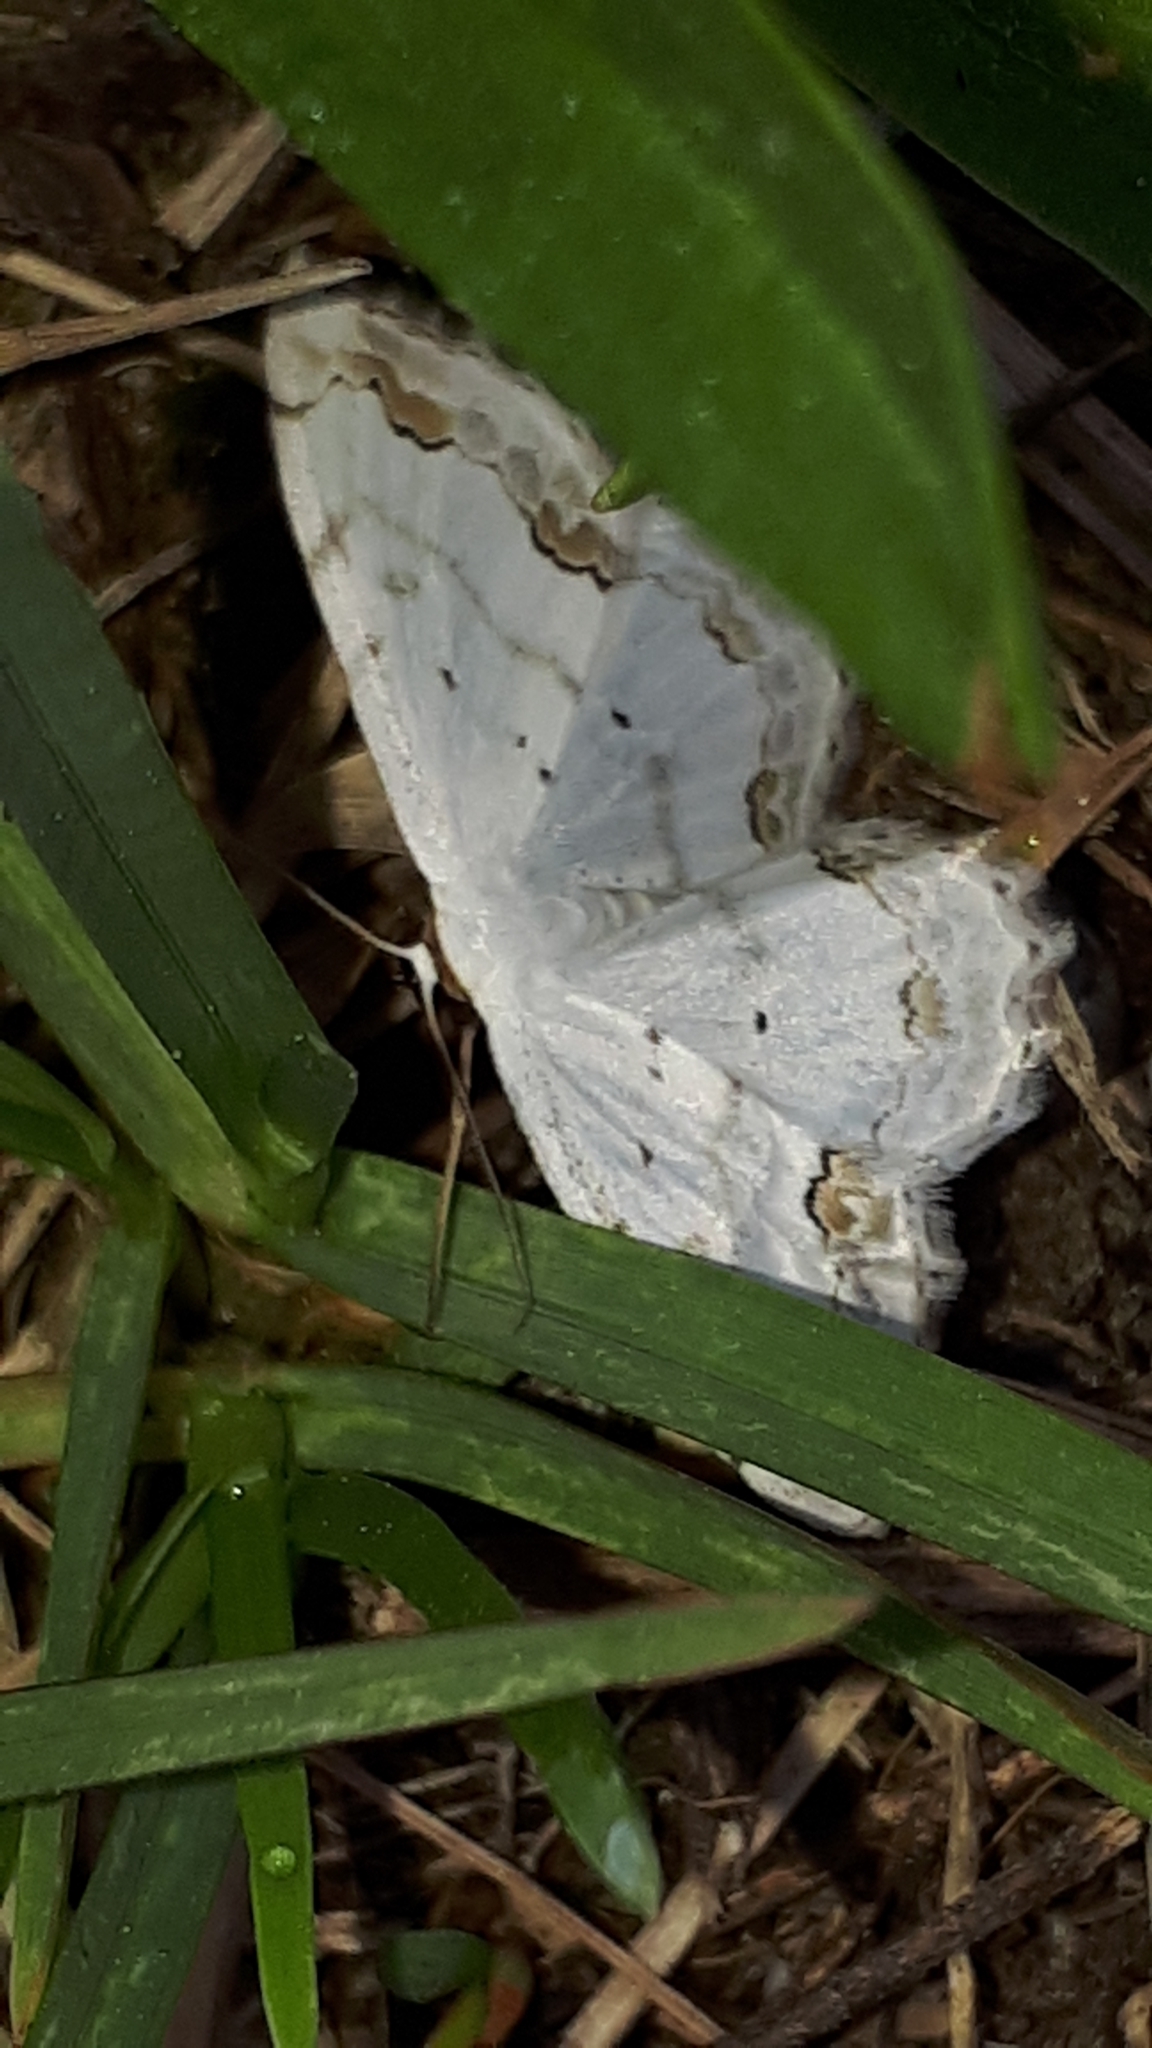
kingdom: Animalia
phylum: Arthropoda
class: Insecta
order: Lepidoptera
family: Geometridae
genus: Scopula
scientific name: Scopula ornata
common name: Lace border
